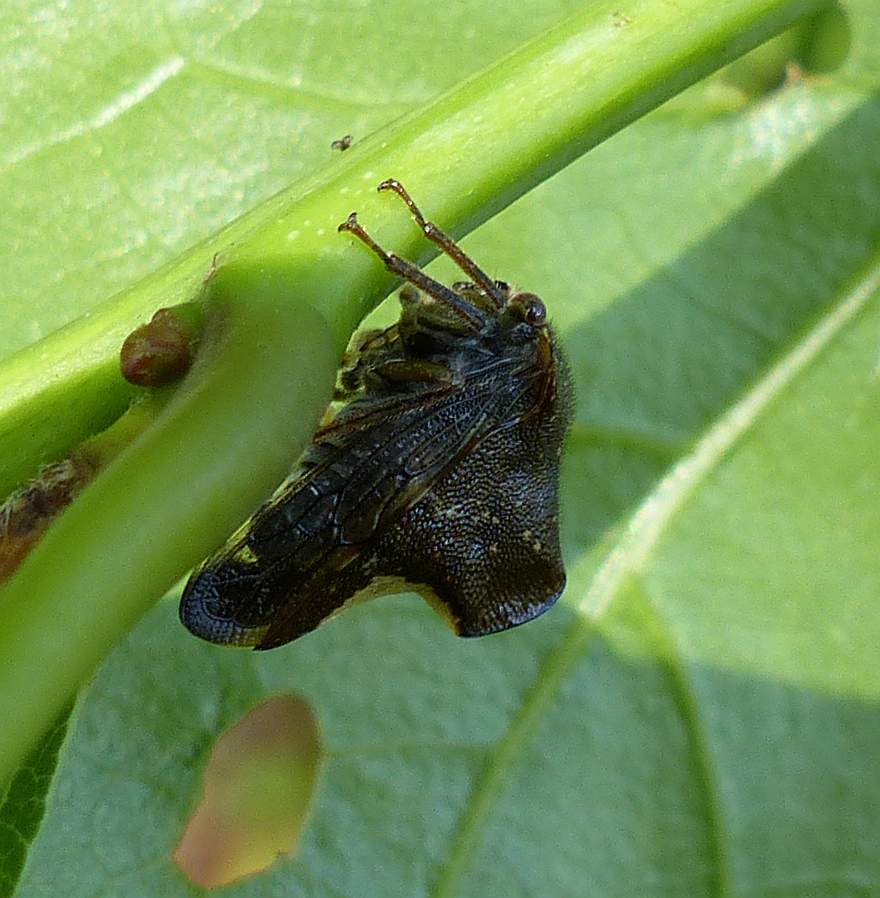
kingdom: Animalia
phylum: Arthropoda
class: Insecta
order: Hemiptera
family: Membracidae
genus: Telamona
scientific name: Telamona monticola
